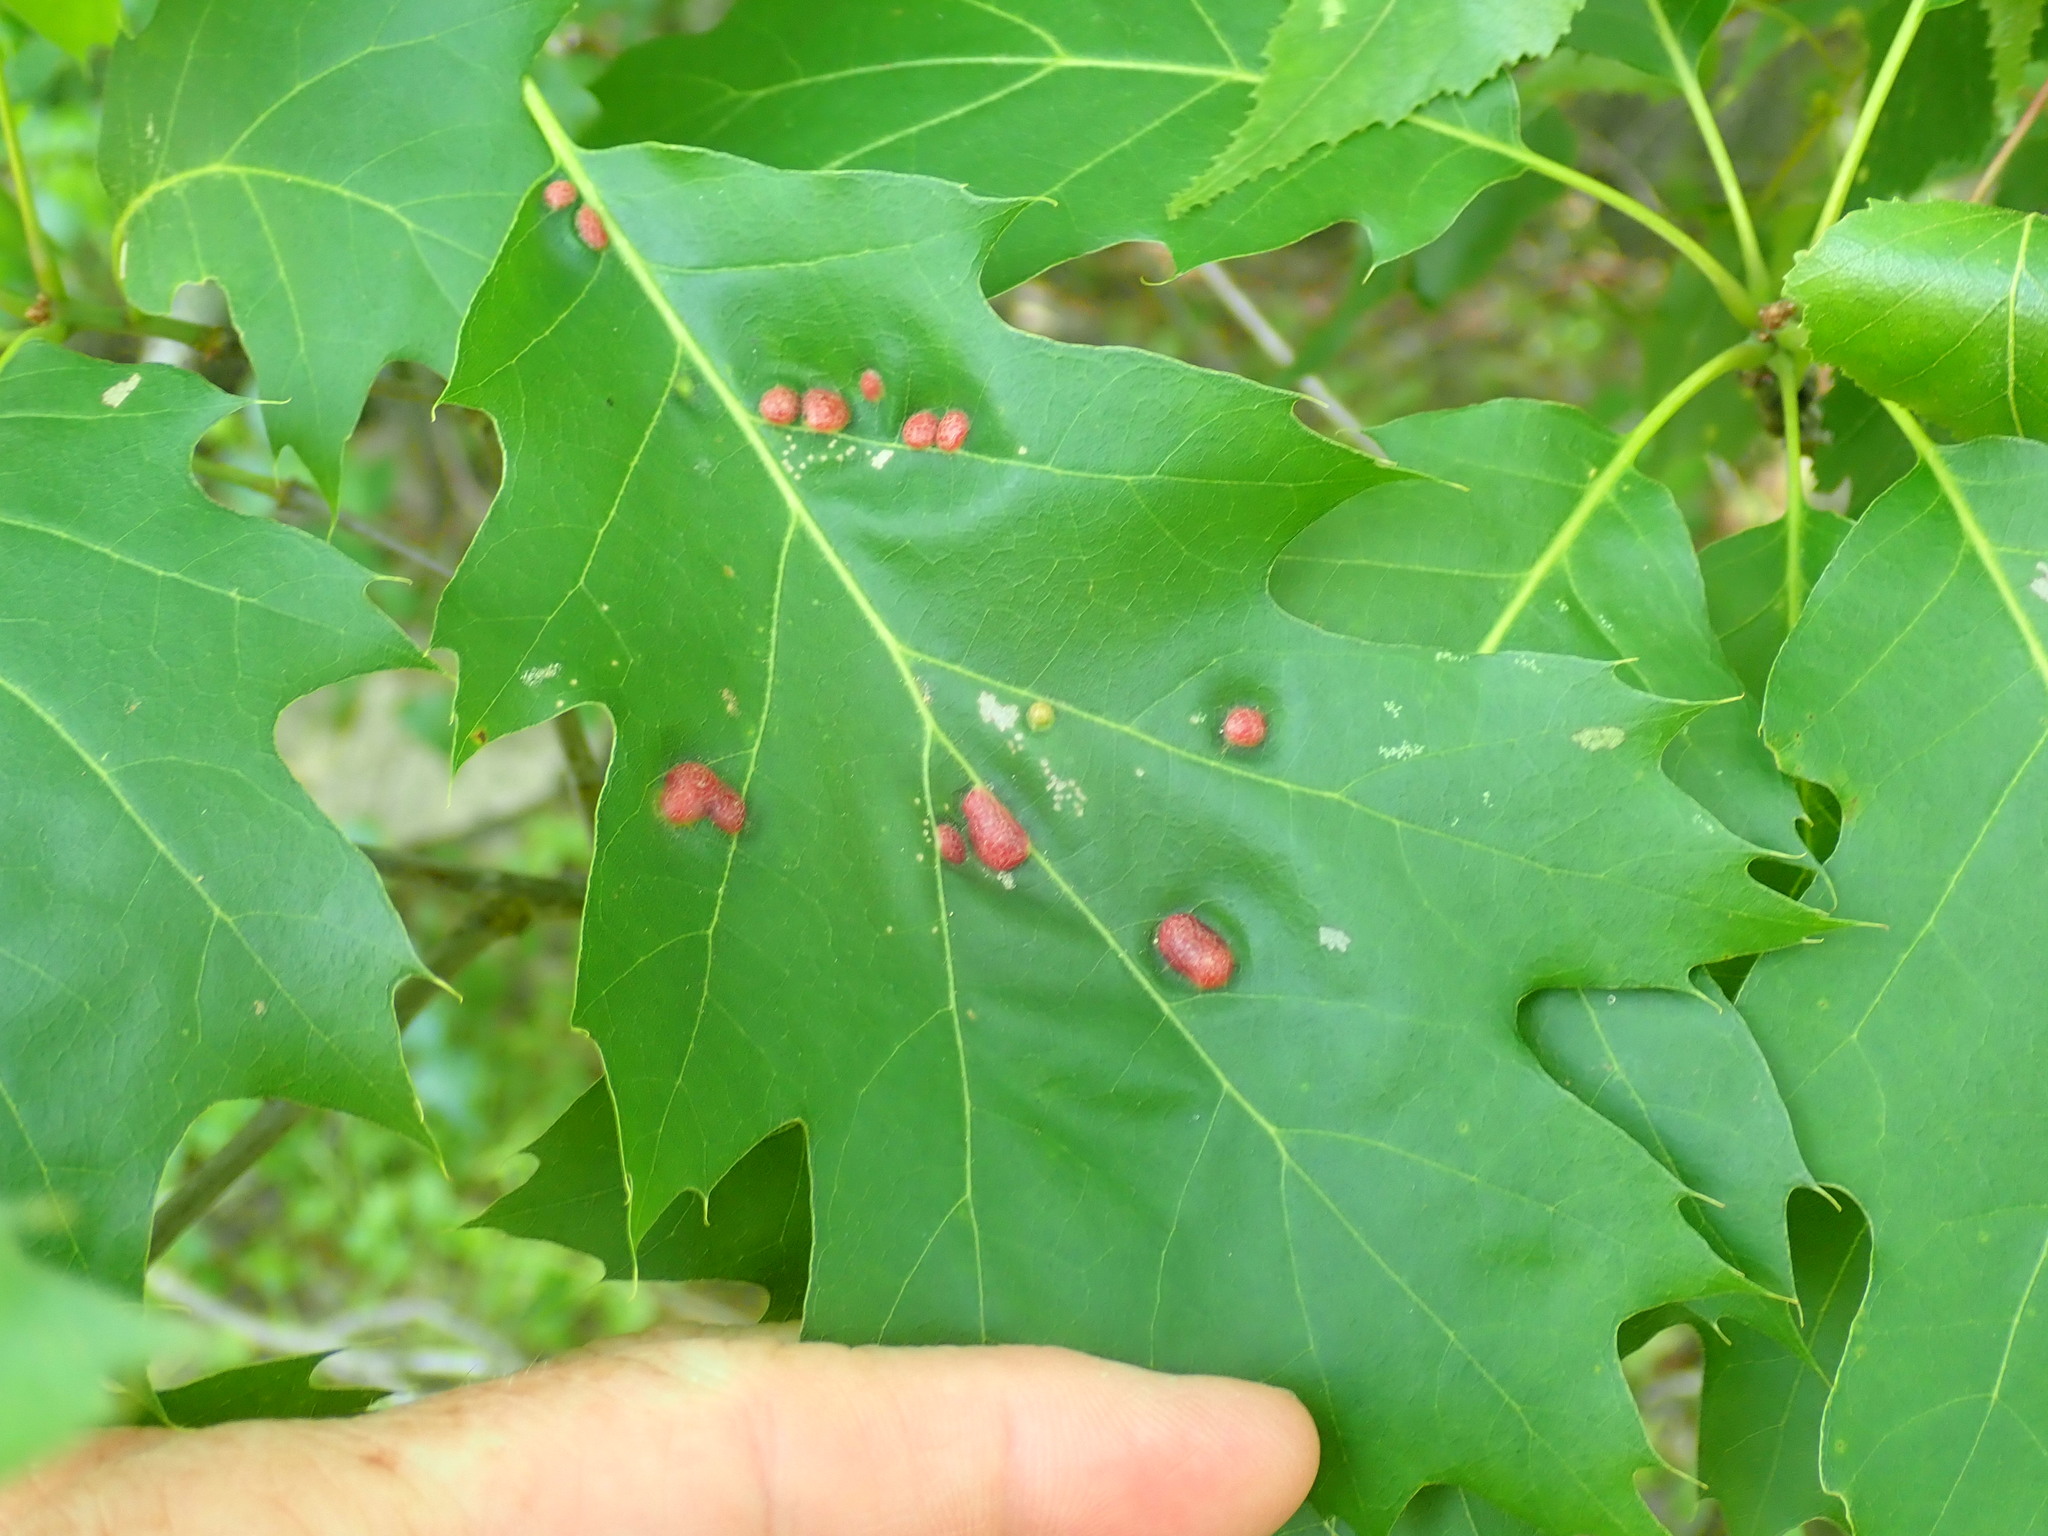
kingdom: Animalia
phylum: Arthropoda
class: Insecta
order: Diptera
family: Cecidomyiidae
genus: Polystepha
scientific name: Polystepha pilulae
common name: Oak leaf gall midge
